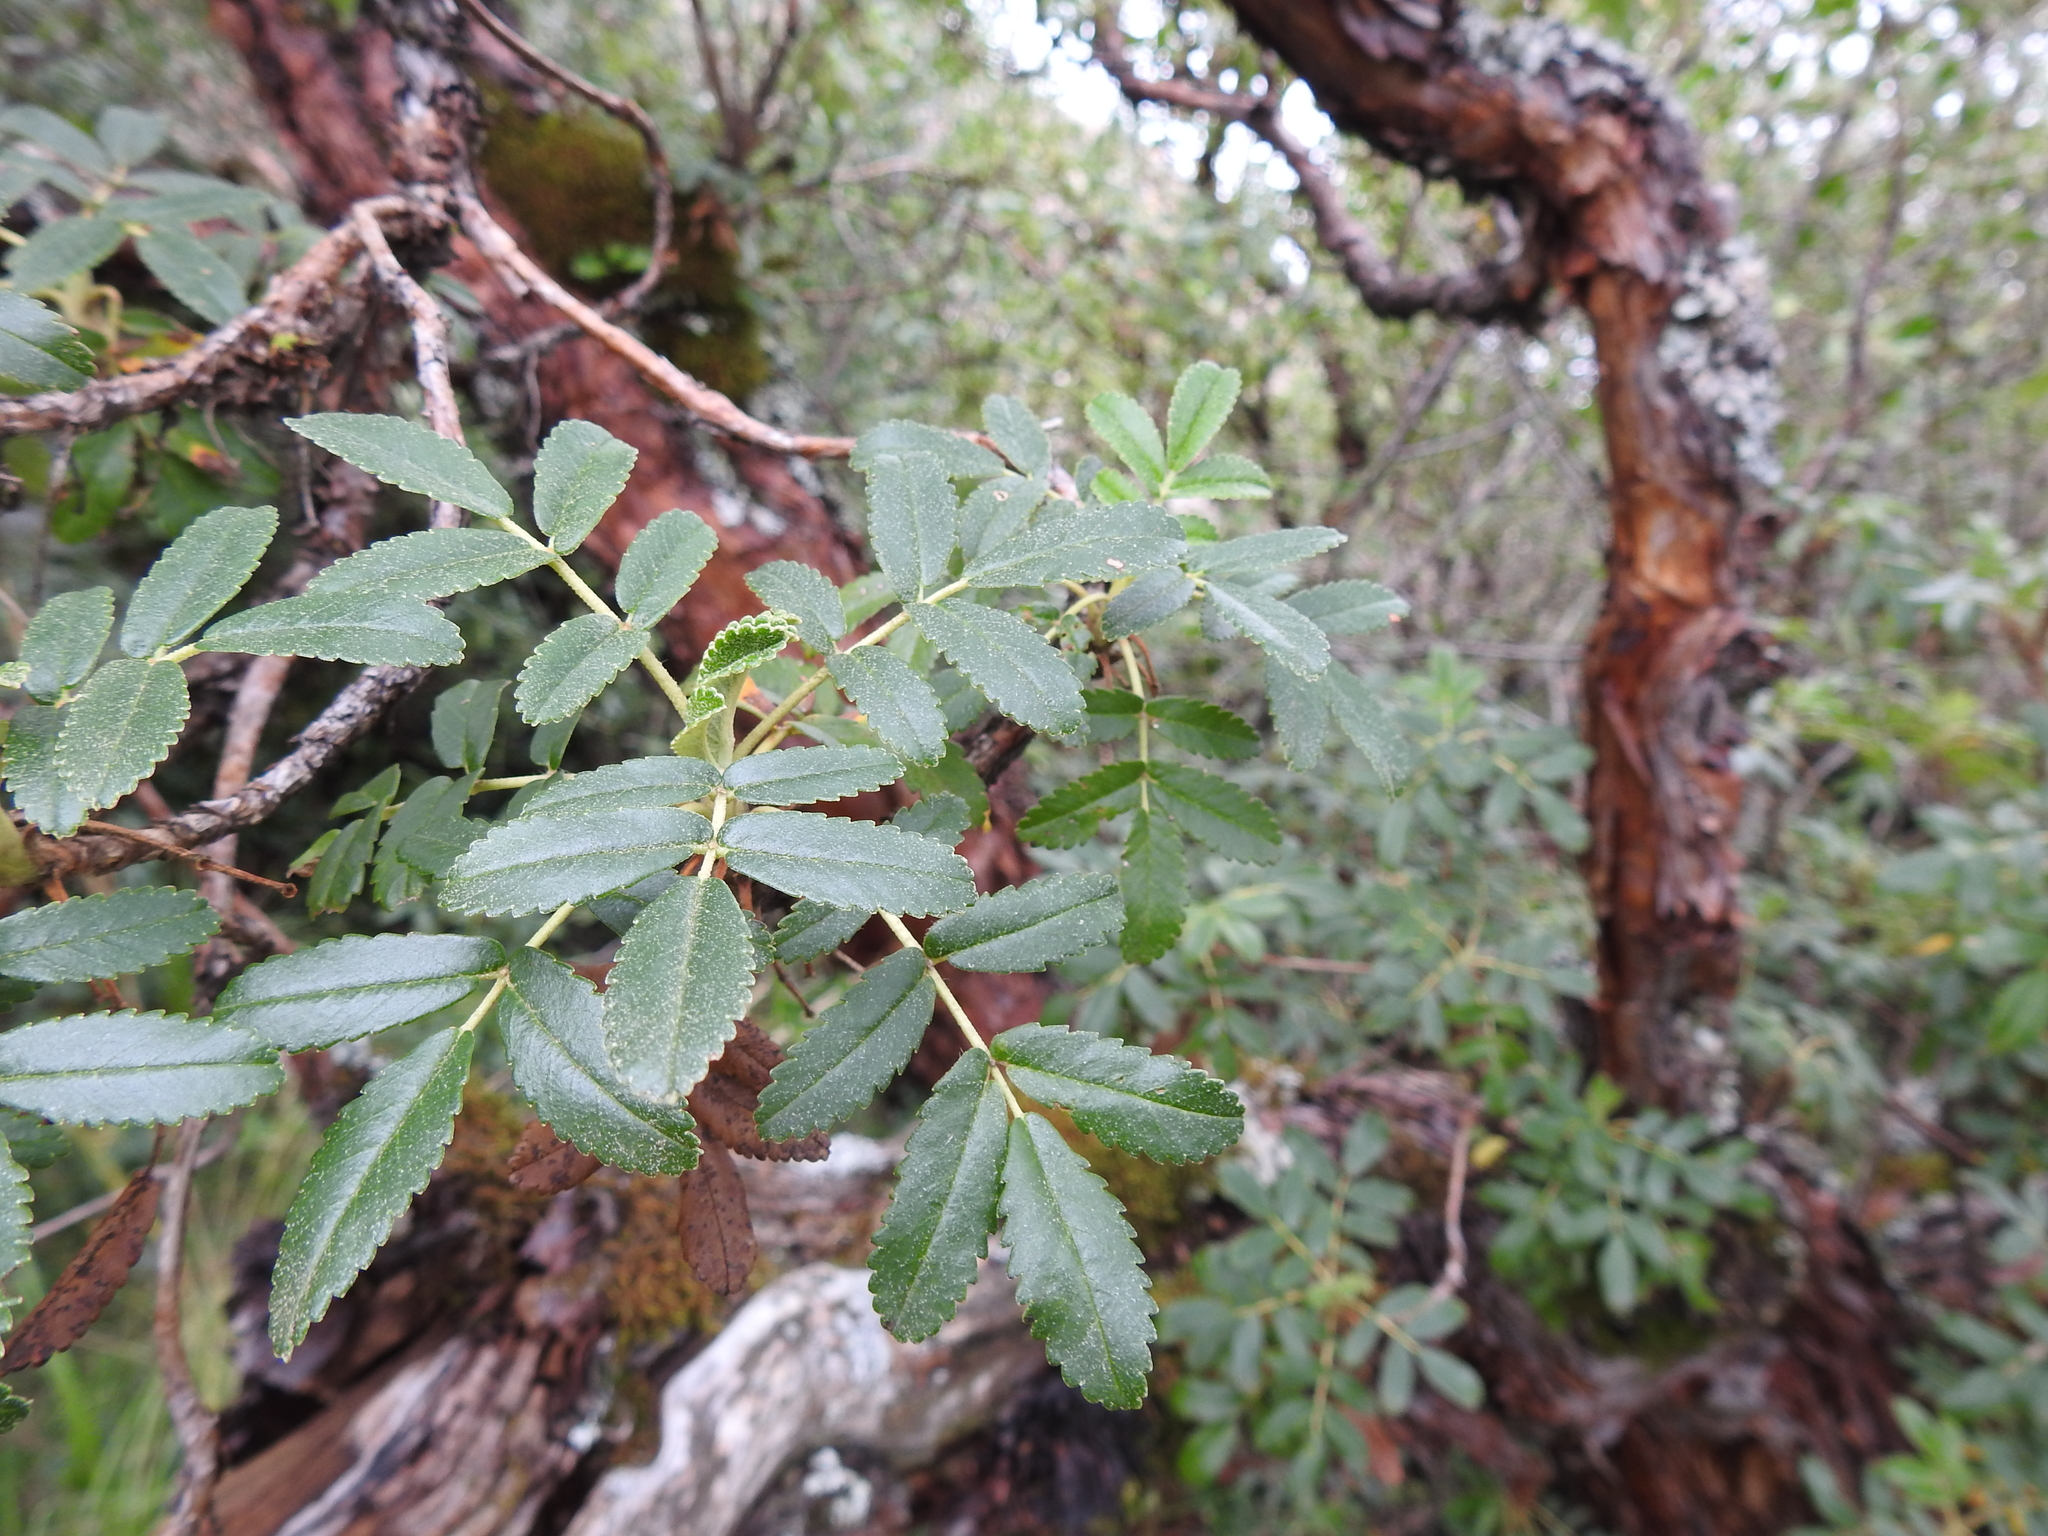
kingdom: Plantae
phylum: Tracheophyta
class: Magnoliopsida
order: Rosales
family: Rosaceae
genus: Polylepis
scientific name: Polylepis australis
